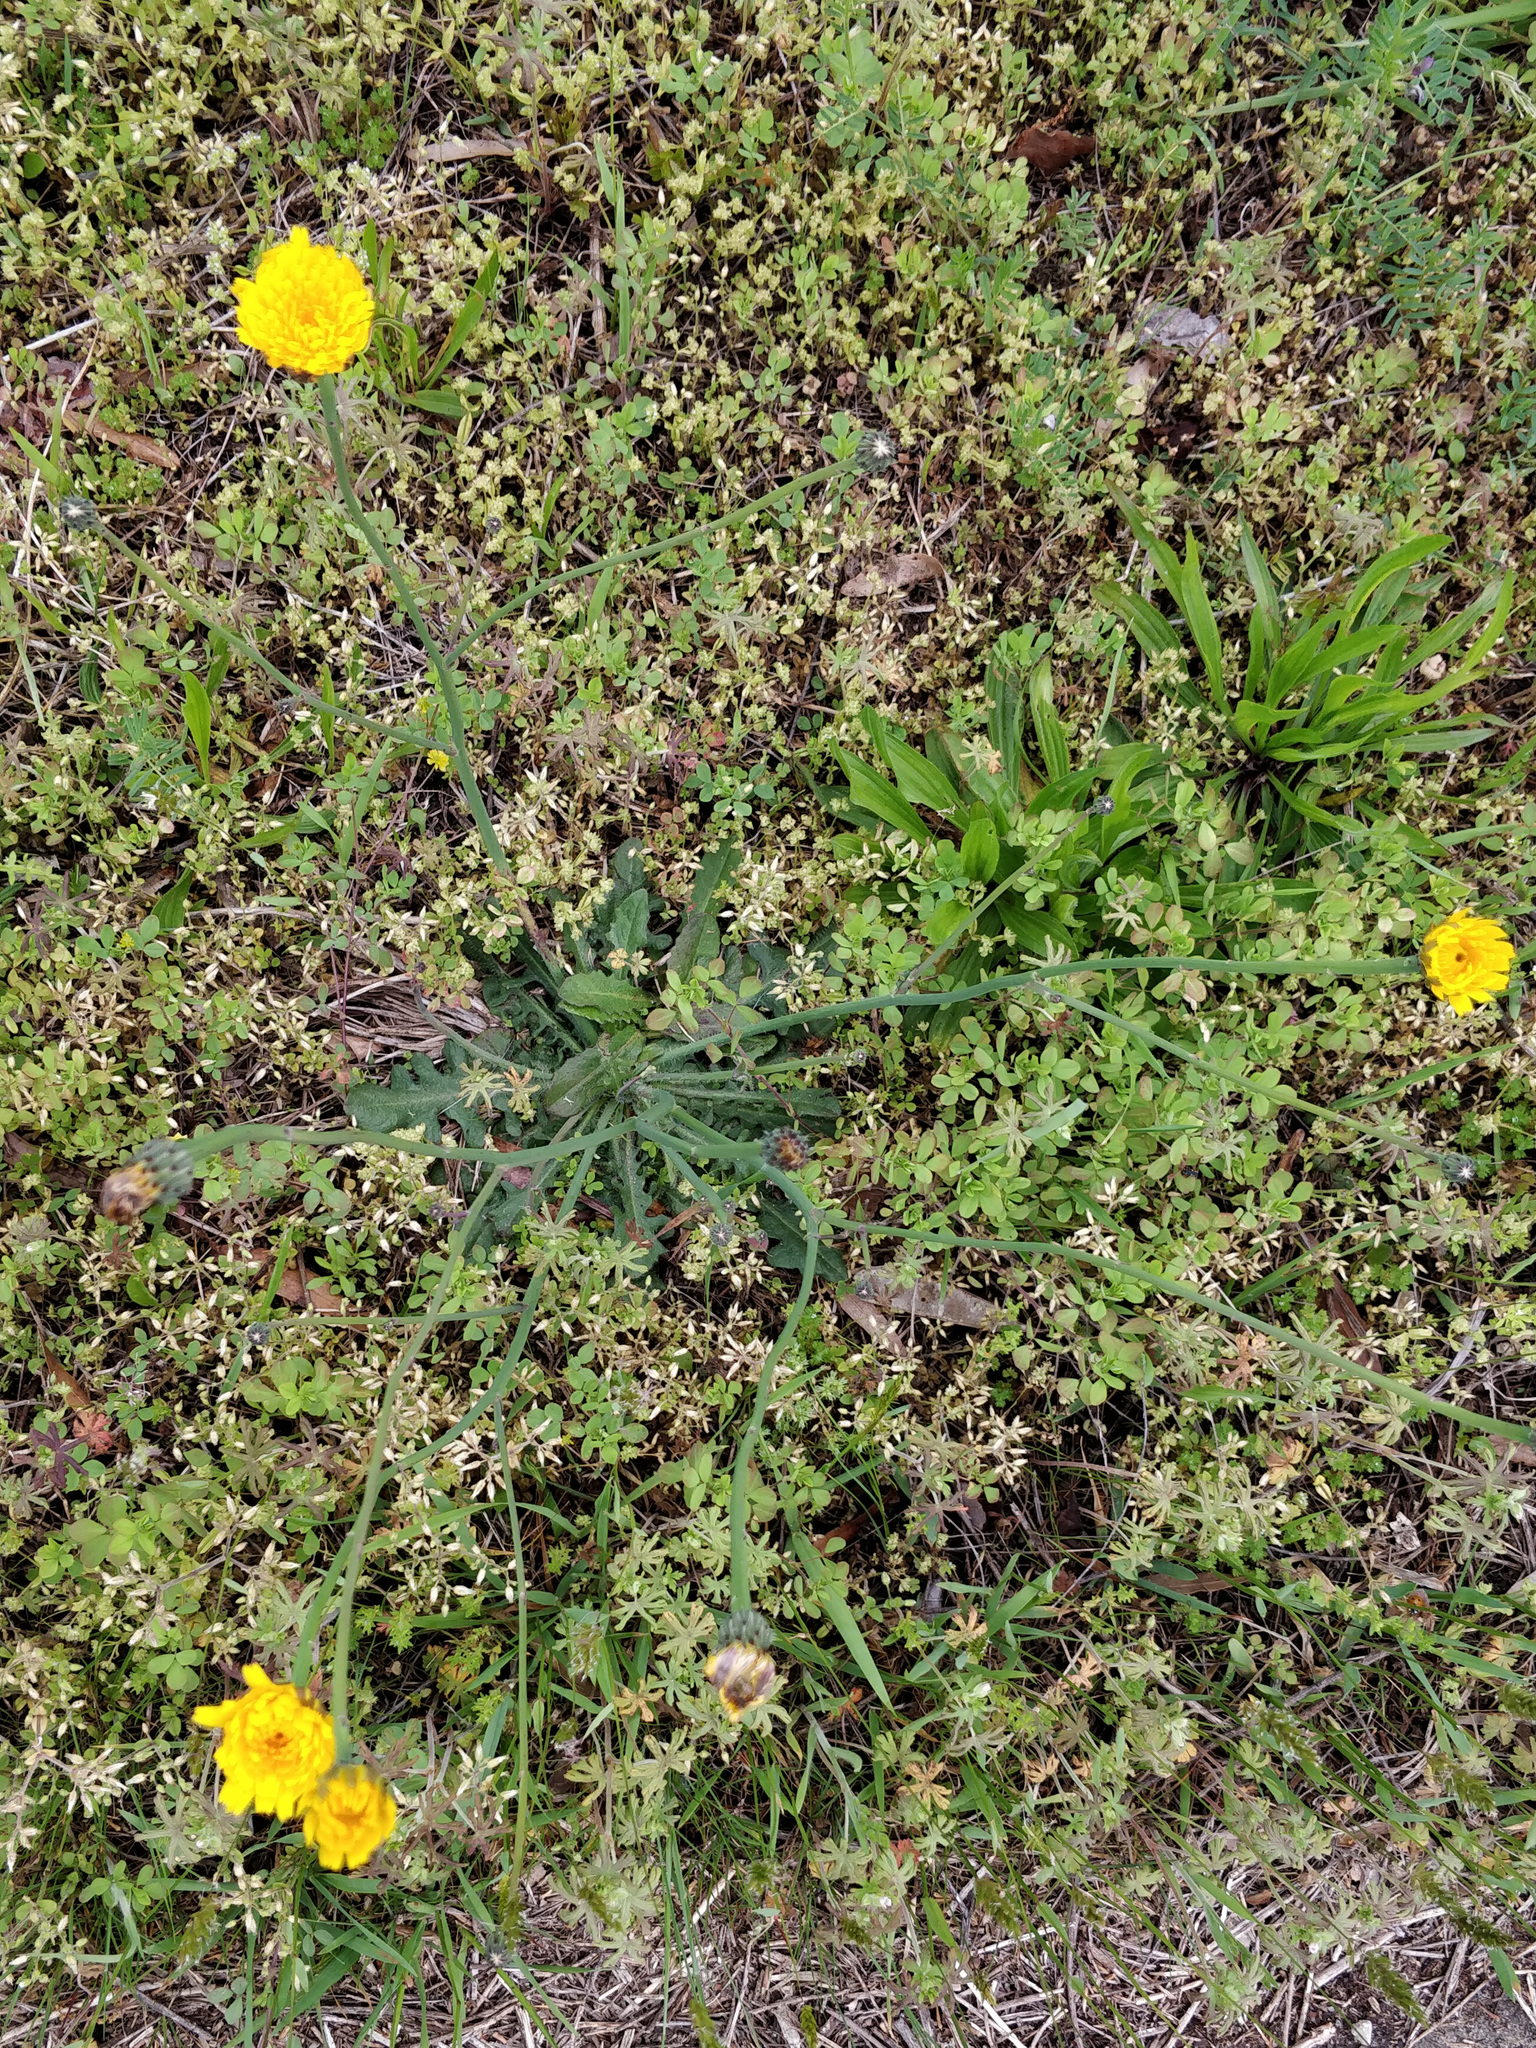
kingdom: Plantae
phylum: Tracheophyta
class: Magnoliopsida
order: Asterales
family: Asteraceae
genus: Hypochaeris
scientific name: Hypochaeris radicata
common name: Flatweed
